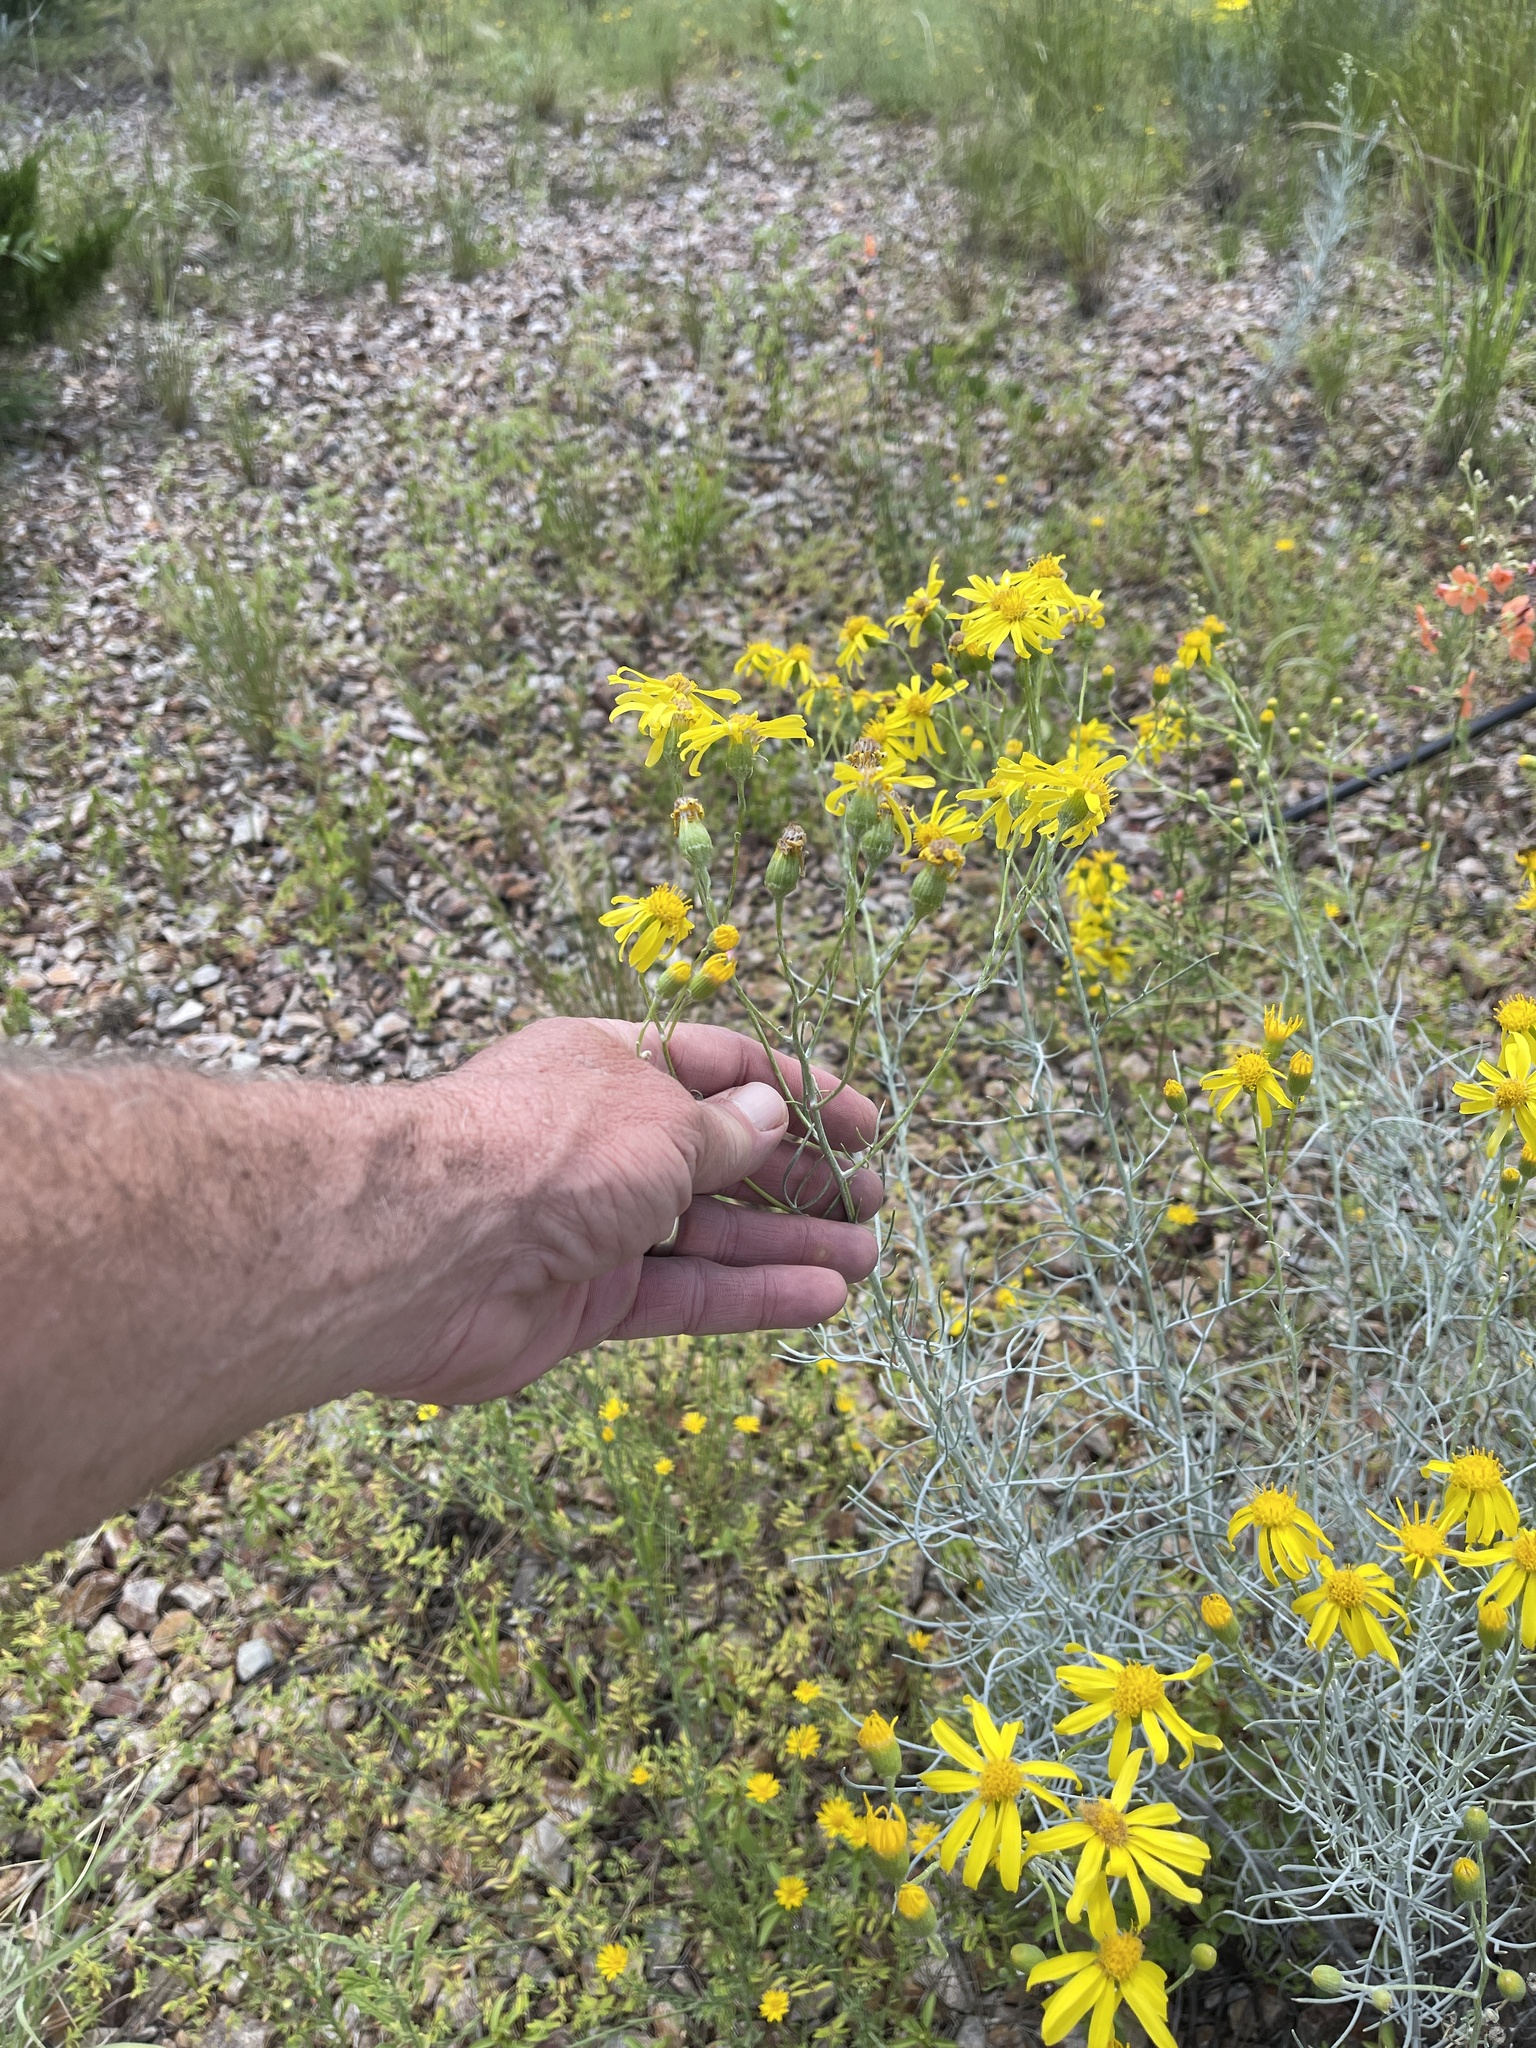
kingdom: Plantae
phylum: Tracheophyta
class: Magnoliopsida
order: Asterales
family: Asteraceae
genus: Senecio
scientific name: Senecio flaccidus
